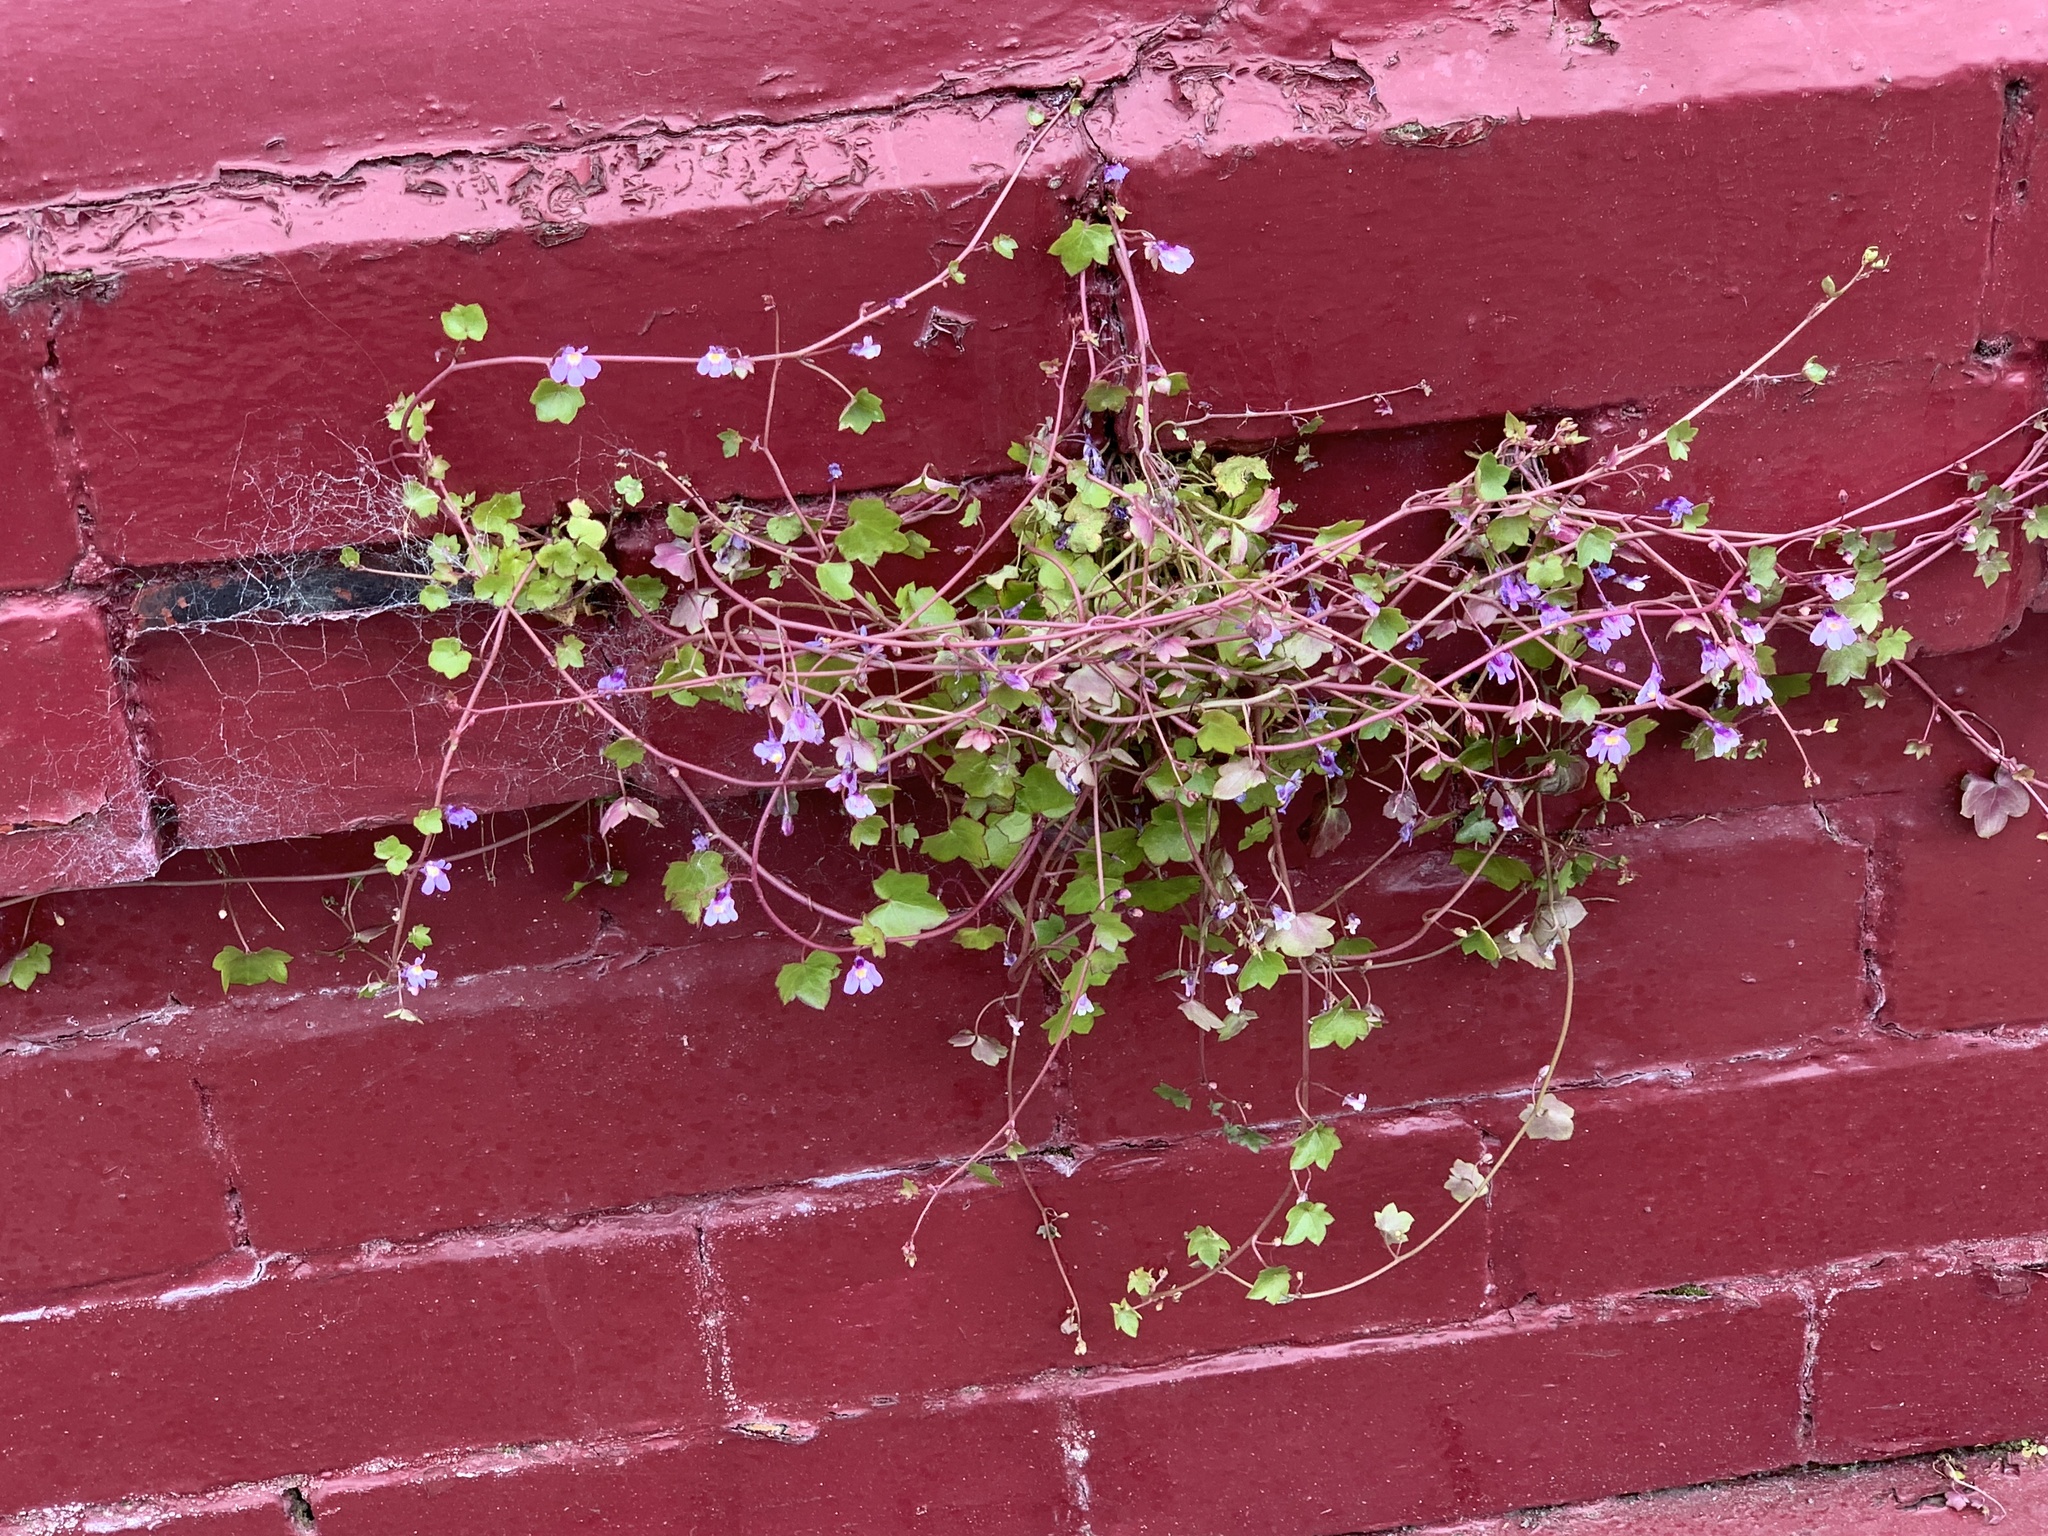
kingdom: Plantae
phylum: Tracheophyta
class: Magnoliopsida
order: Lamiales
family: Plantaginaceae
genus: Cymbalaria
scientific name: Cymbalaria muralis
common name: Ivy-leaved toadflax
